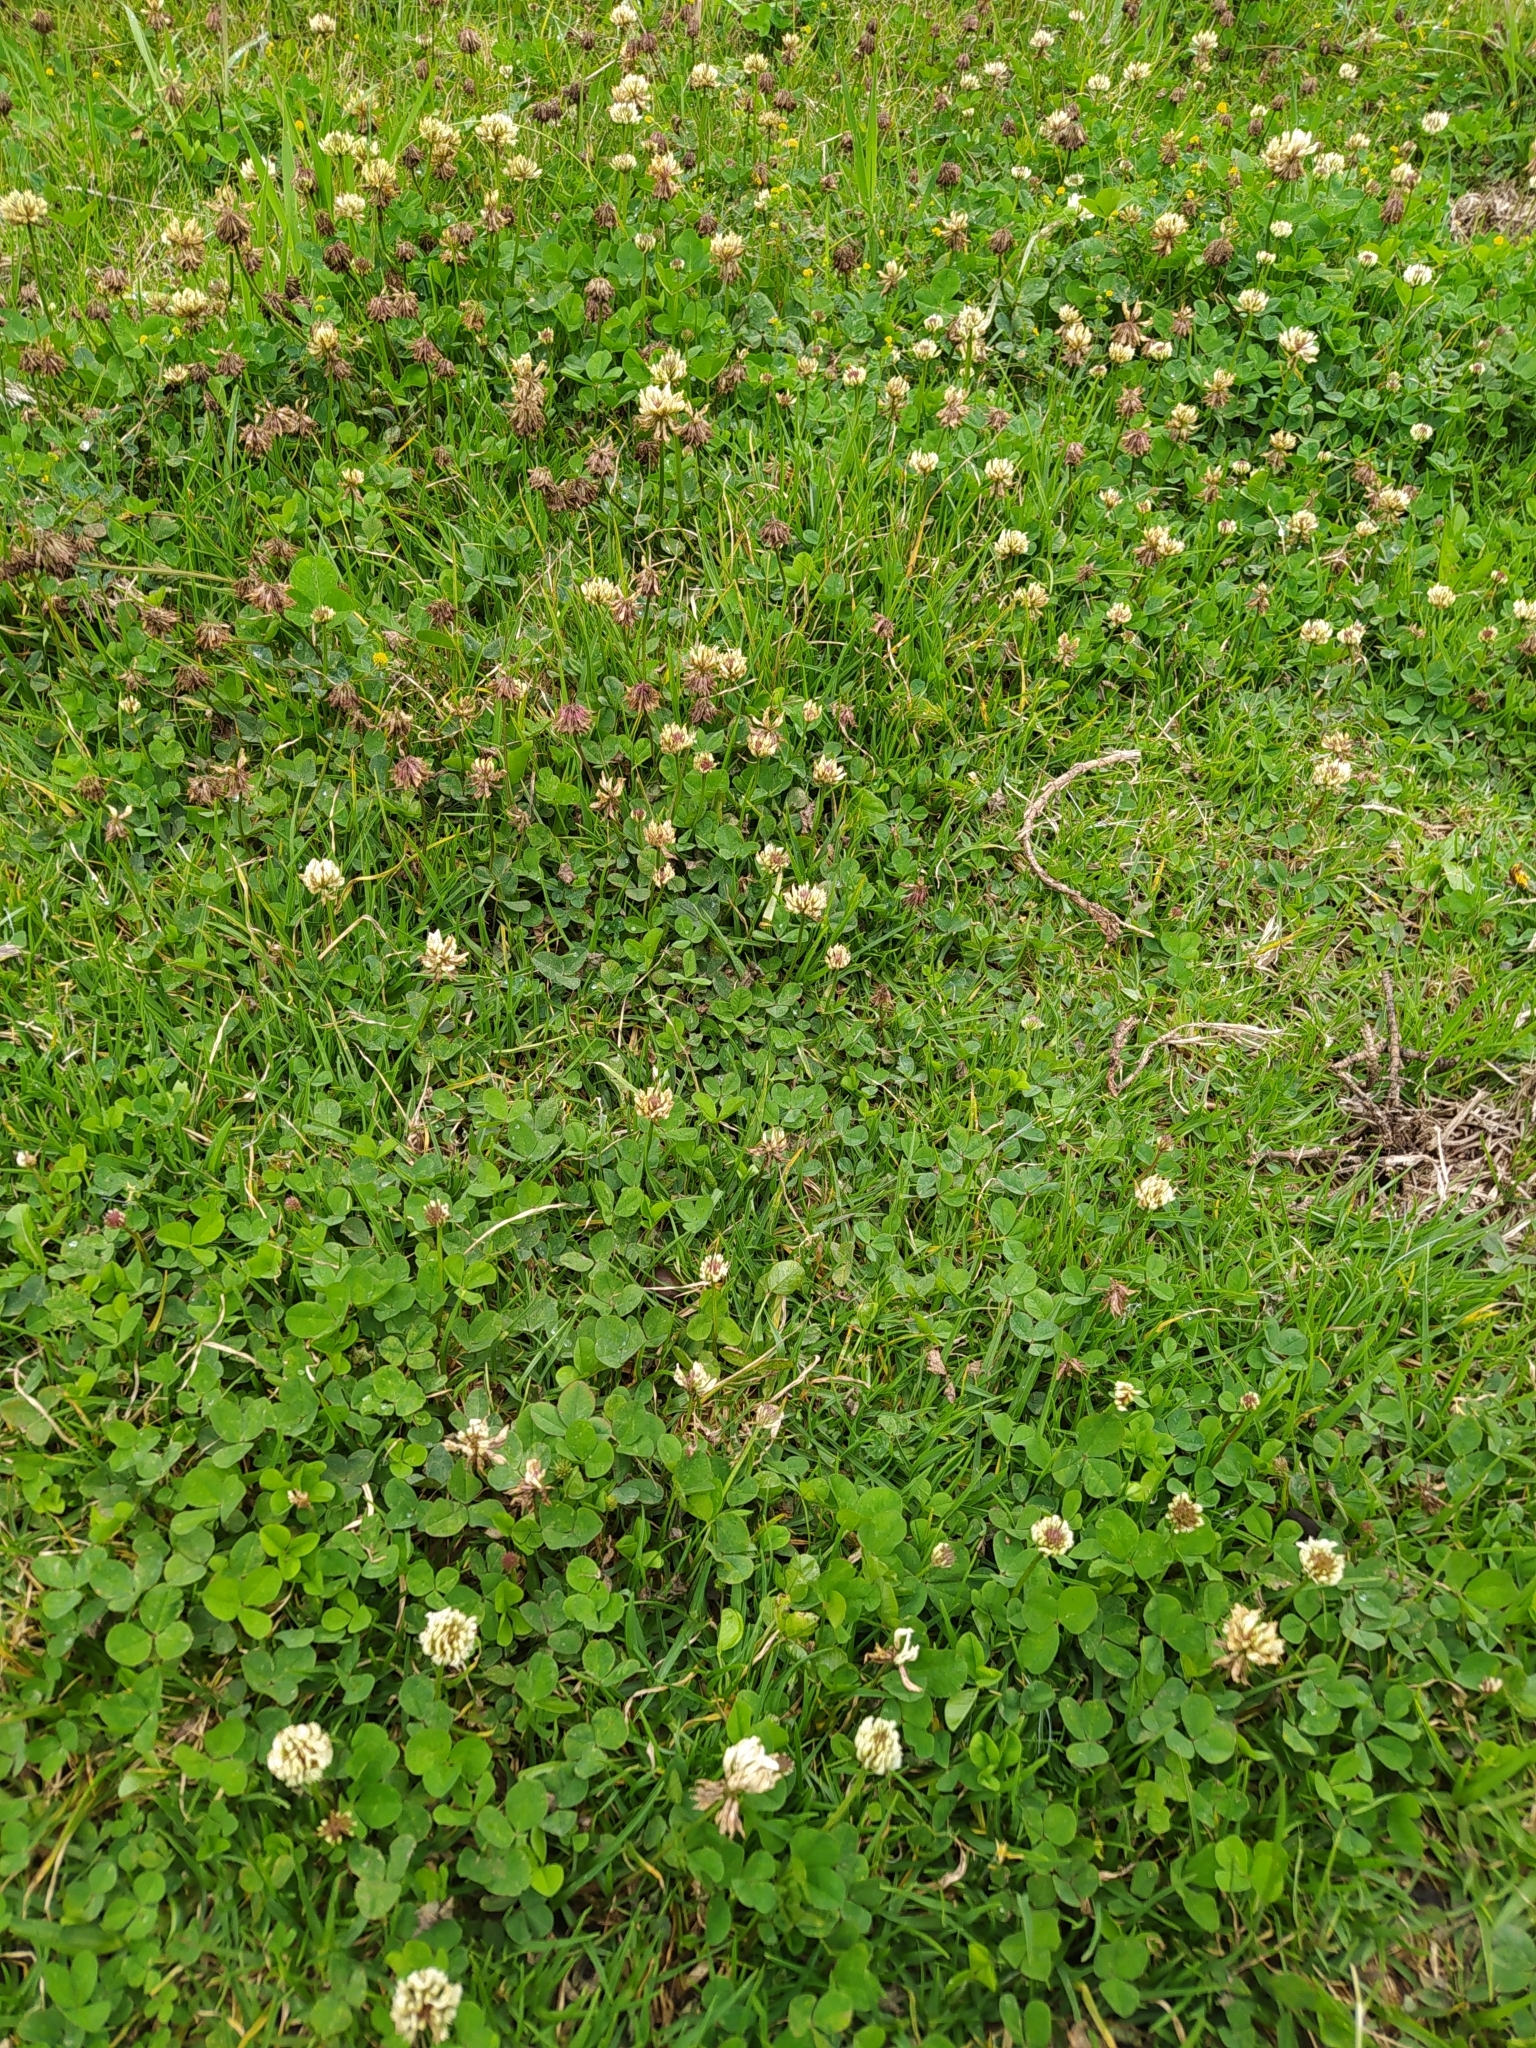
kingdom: Plantae
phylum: Tracheophyta
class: Magnoliopsida
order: Fabales
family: Fabaceae
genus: Trifolium
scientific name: Trifolium repens
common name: White clover
